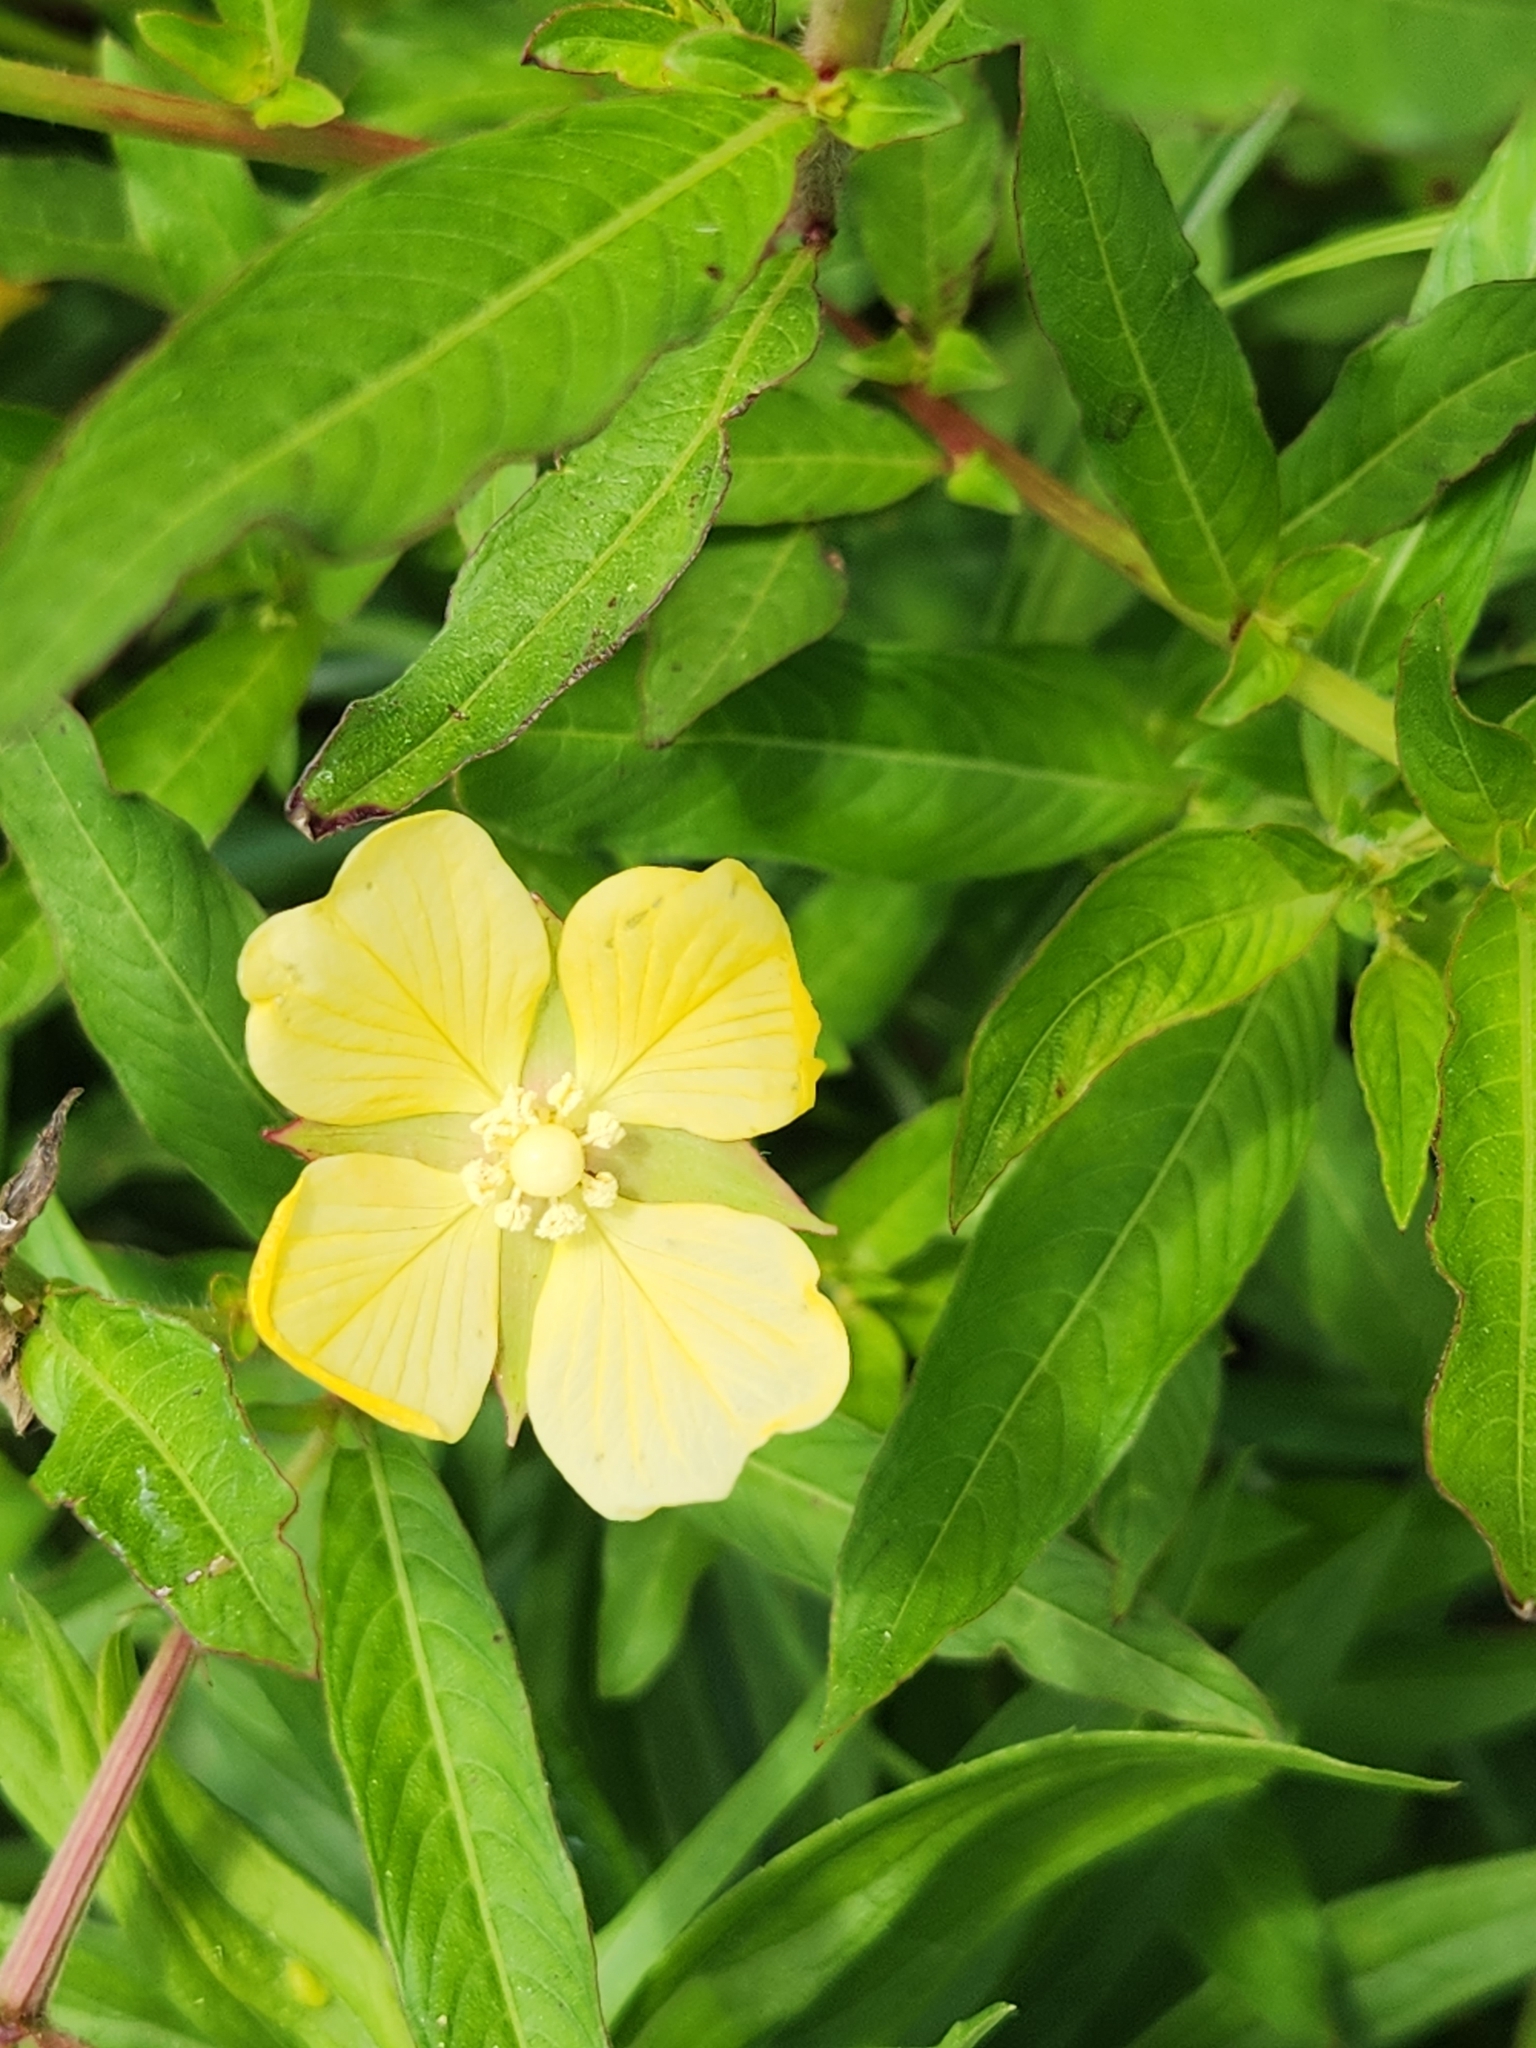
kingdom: Plantae
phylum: Tracheophyta
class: Magnoliopsida
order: Myrtales
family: Onagraceae
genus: Ludwigia
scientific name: Ludwigia octovalvis
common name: Water-primrose
